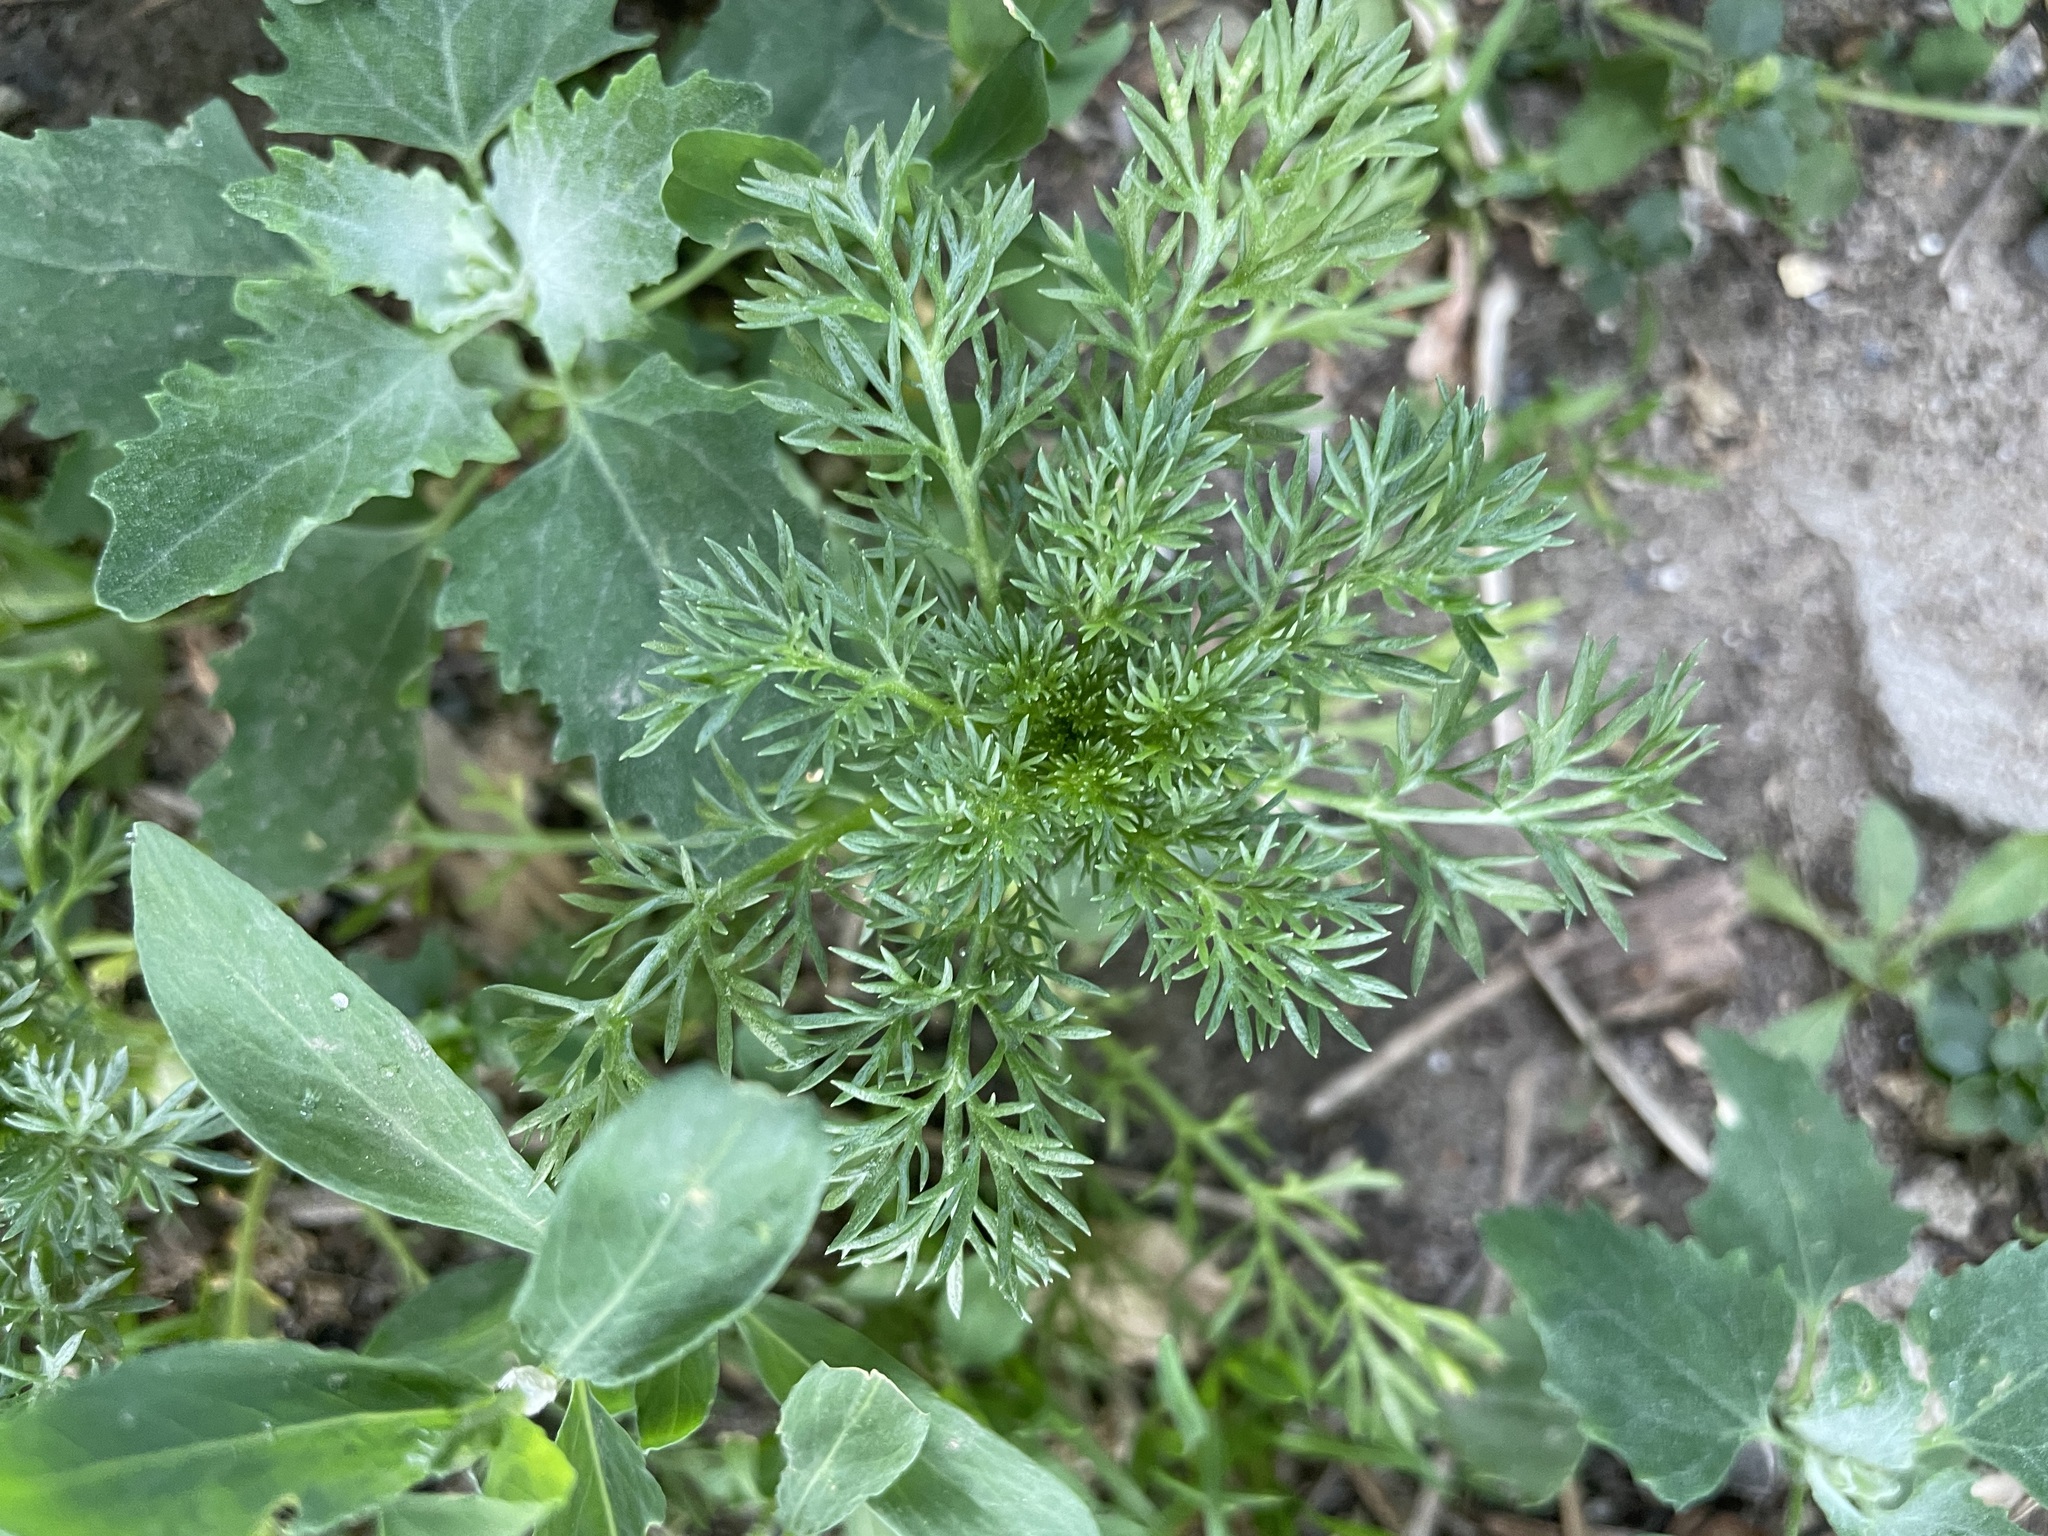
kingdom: Plantae
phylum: Tracheophyta
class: Magnoliopsida
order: Asterales
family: Asteraceae
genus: Matricaria
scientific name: Matricaria discoidea
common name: Disc mayweed
